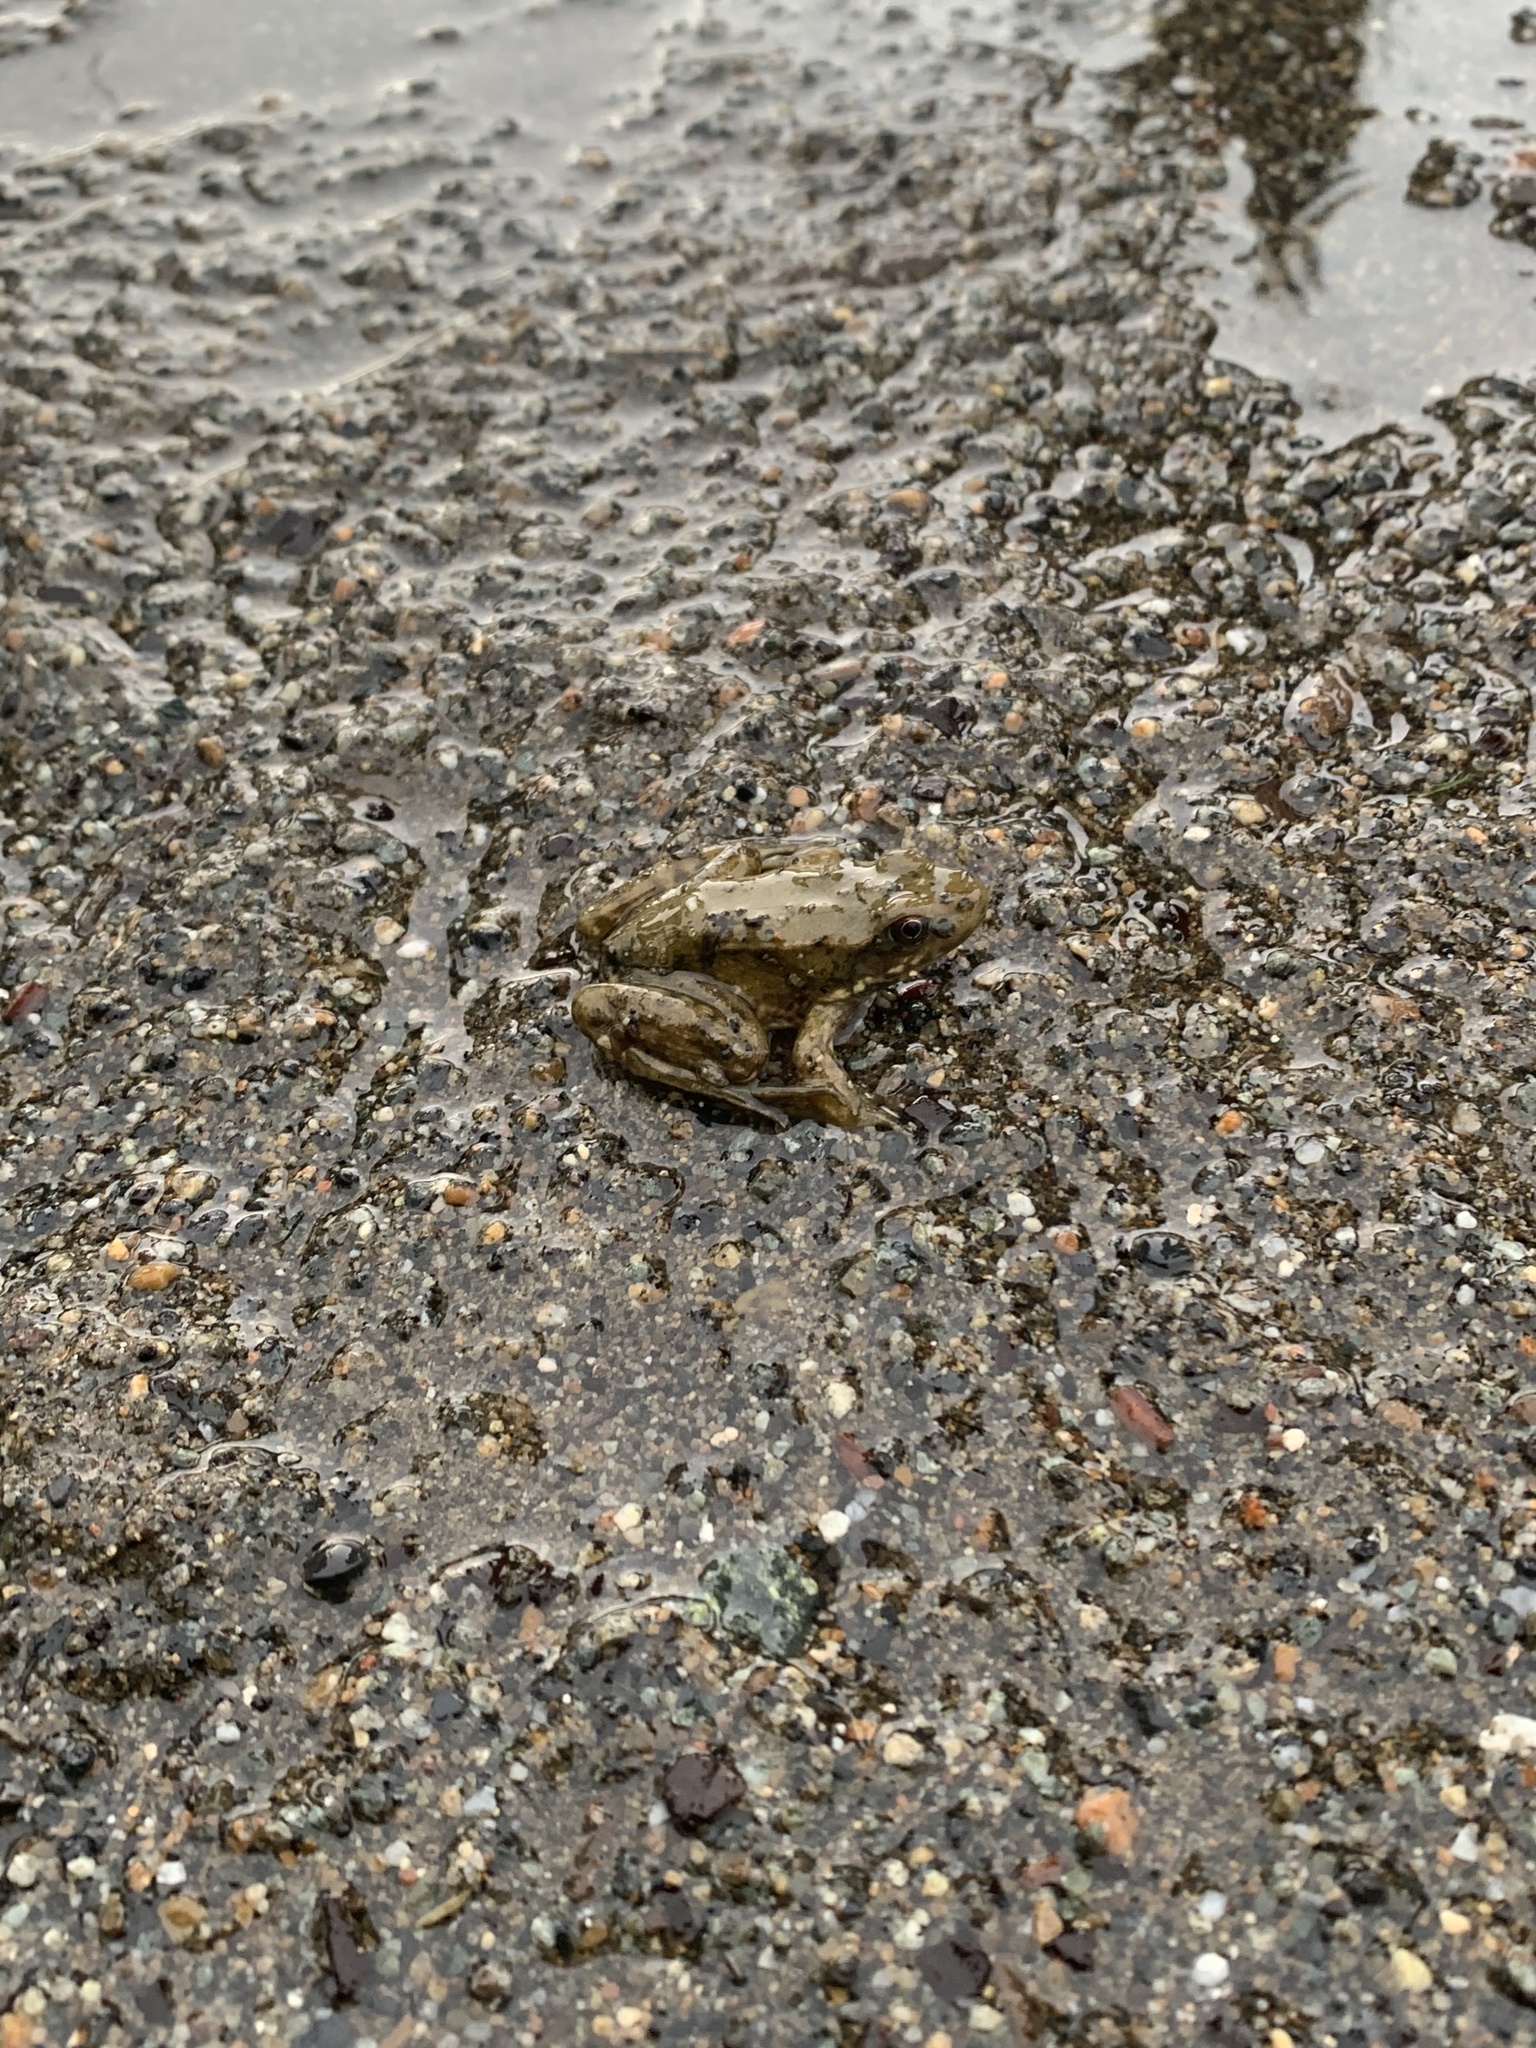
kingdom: Animalia
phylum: Chordata
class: Amphibia
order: Anura
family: Ranidae
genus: Lithobates
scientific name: Lithobates clamitans
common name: Green frog
